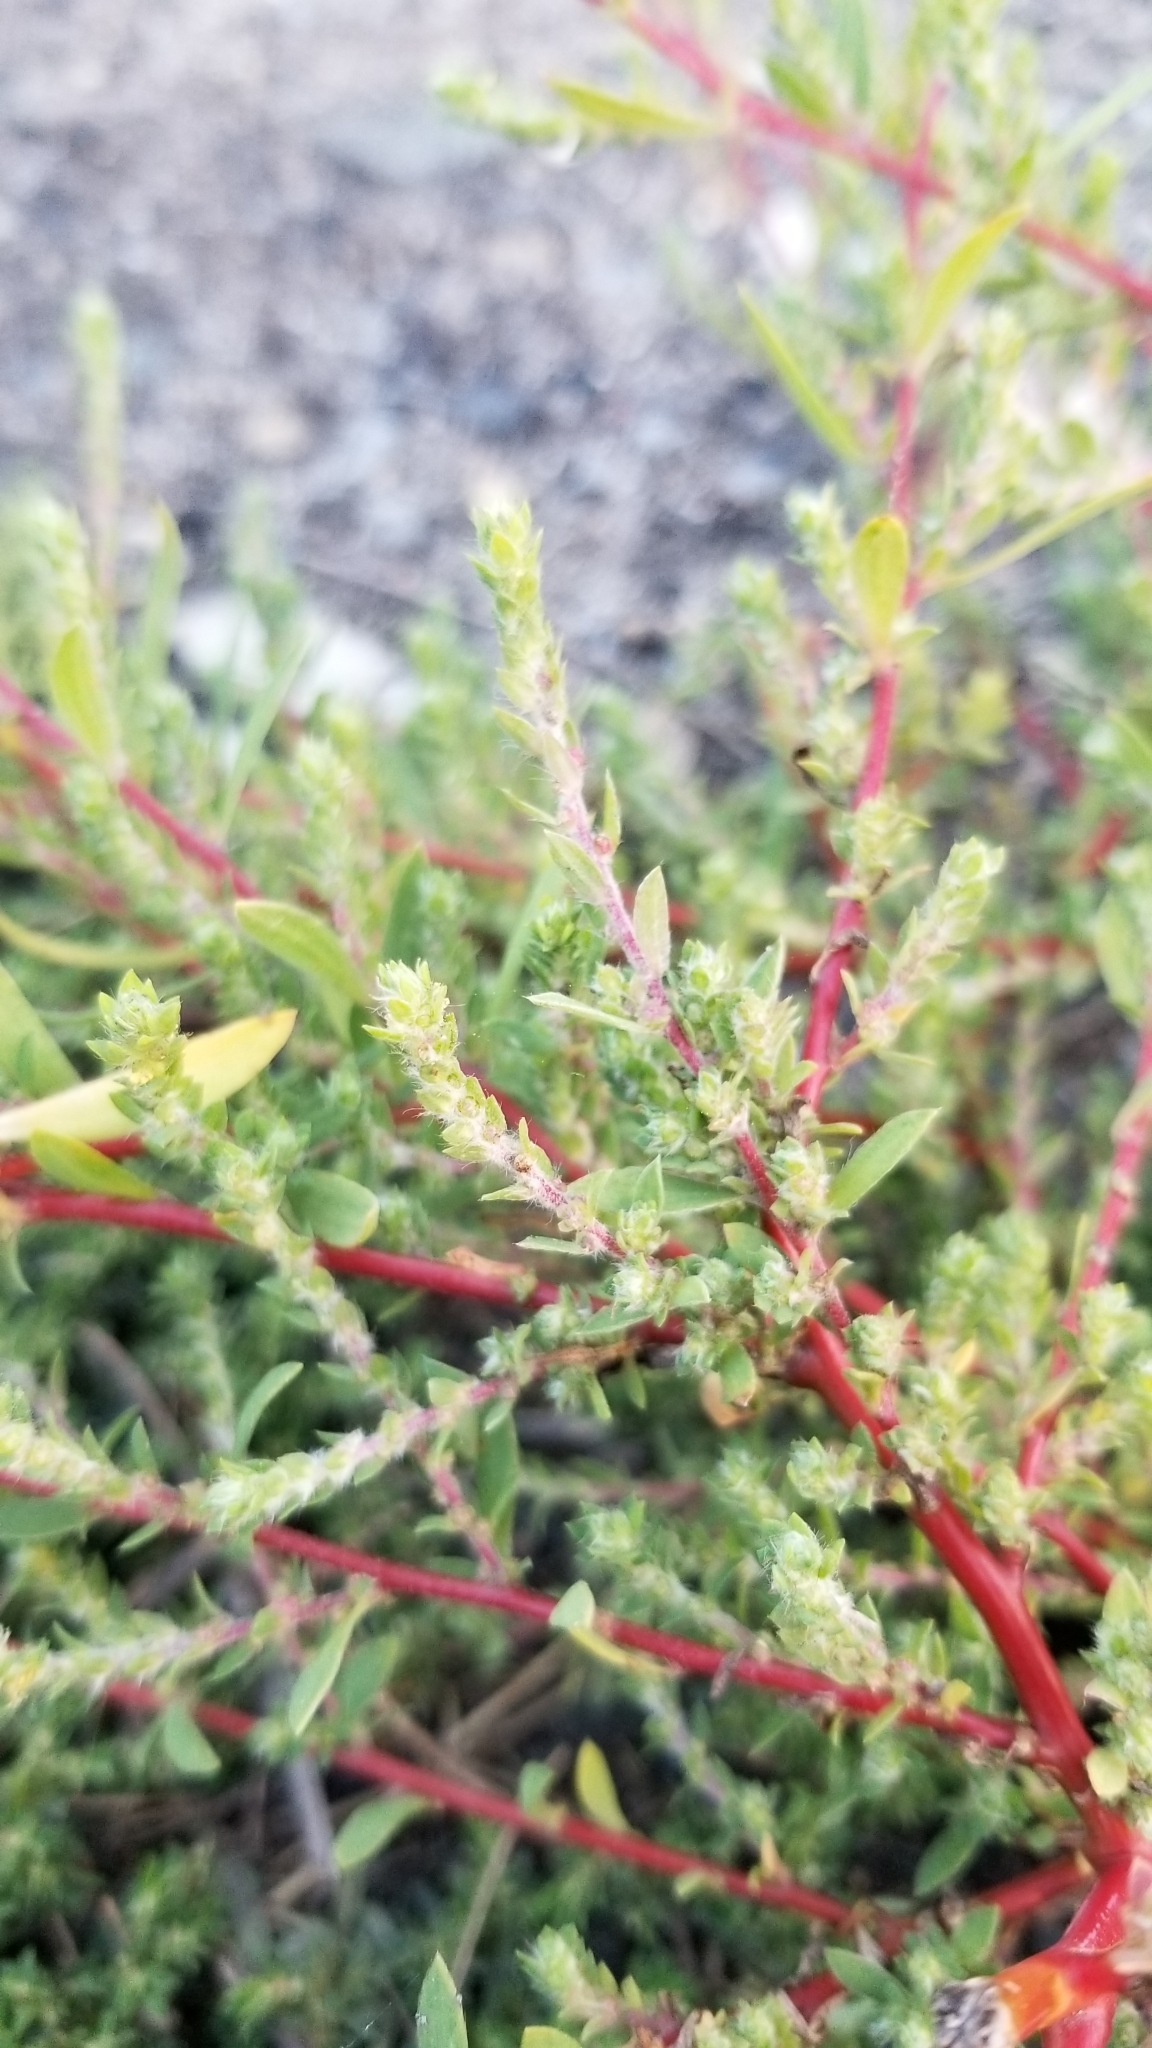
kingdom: Plantae
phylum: Tracheophyta
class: Magnoliopsida
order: Caryophyllales
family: Amaranthaceae
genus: Bassia
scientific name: Bassia scoparia
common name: Belvedere
